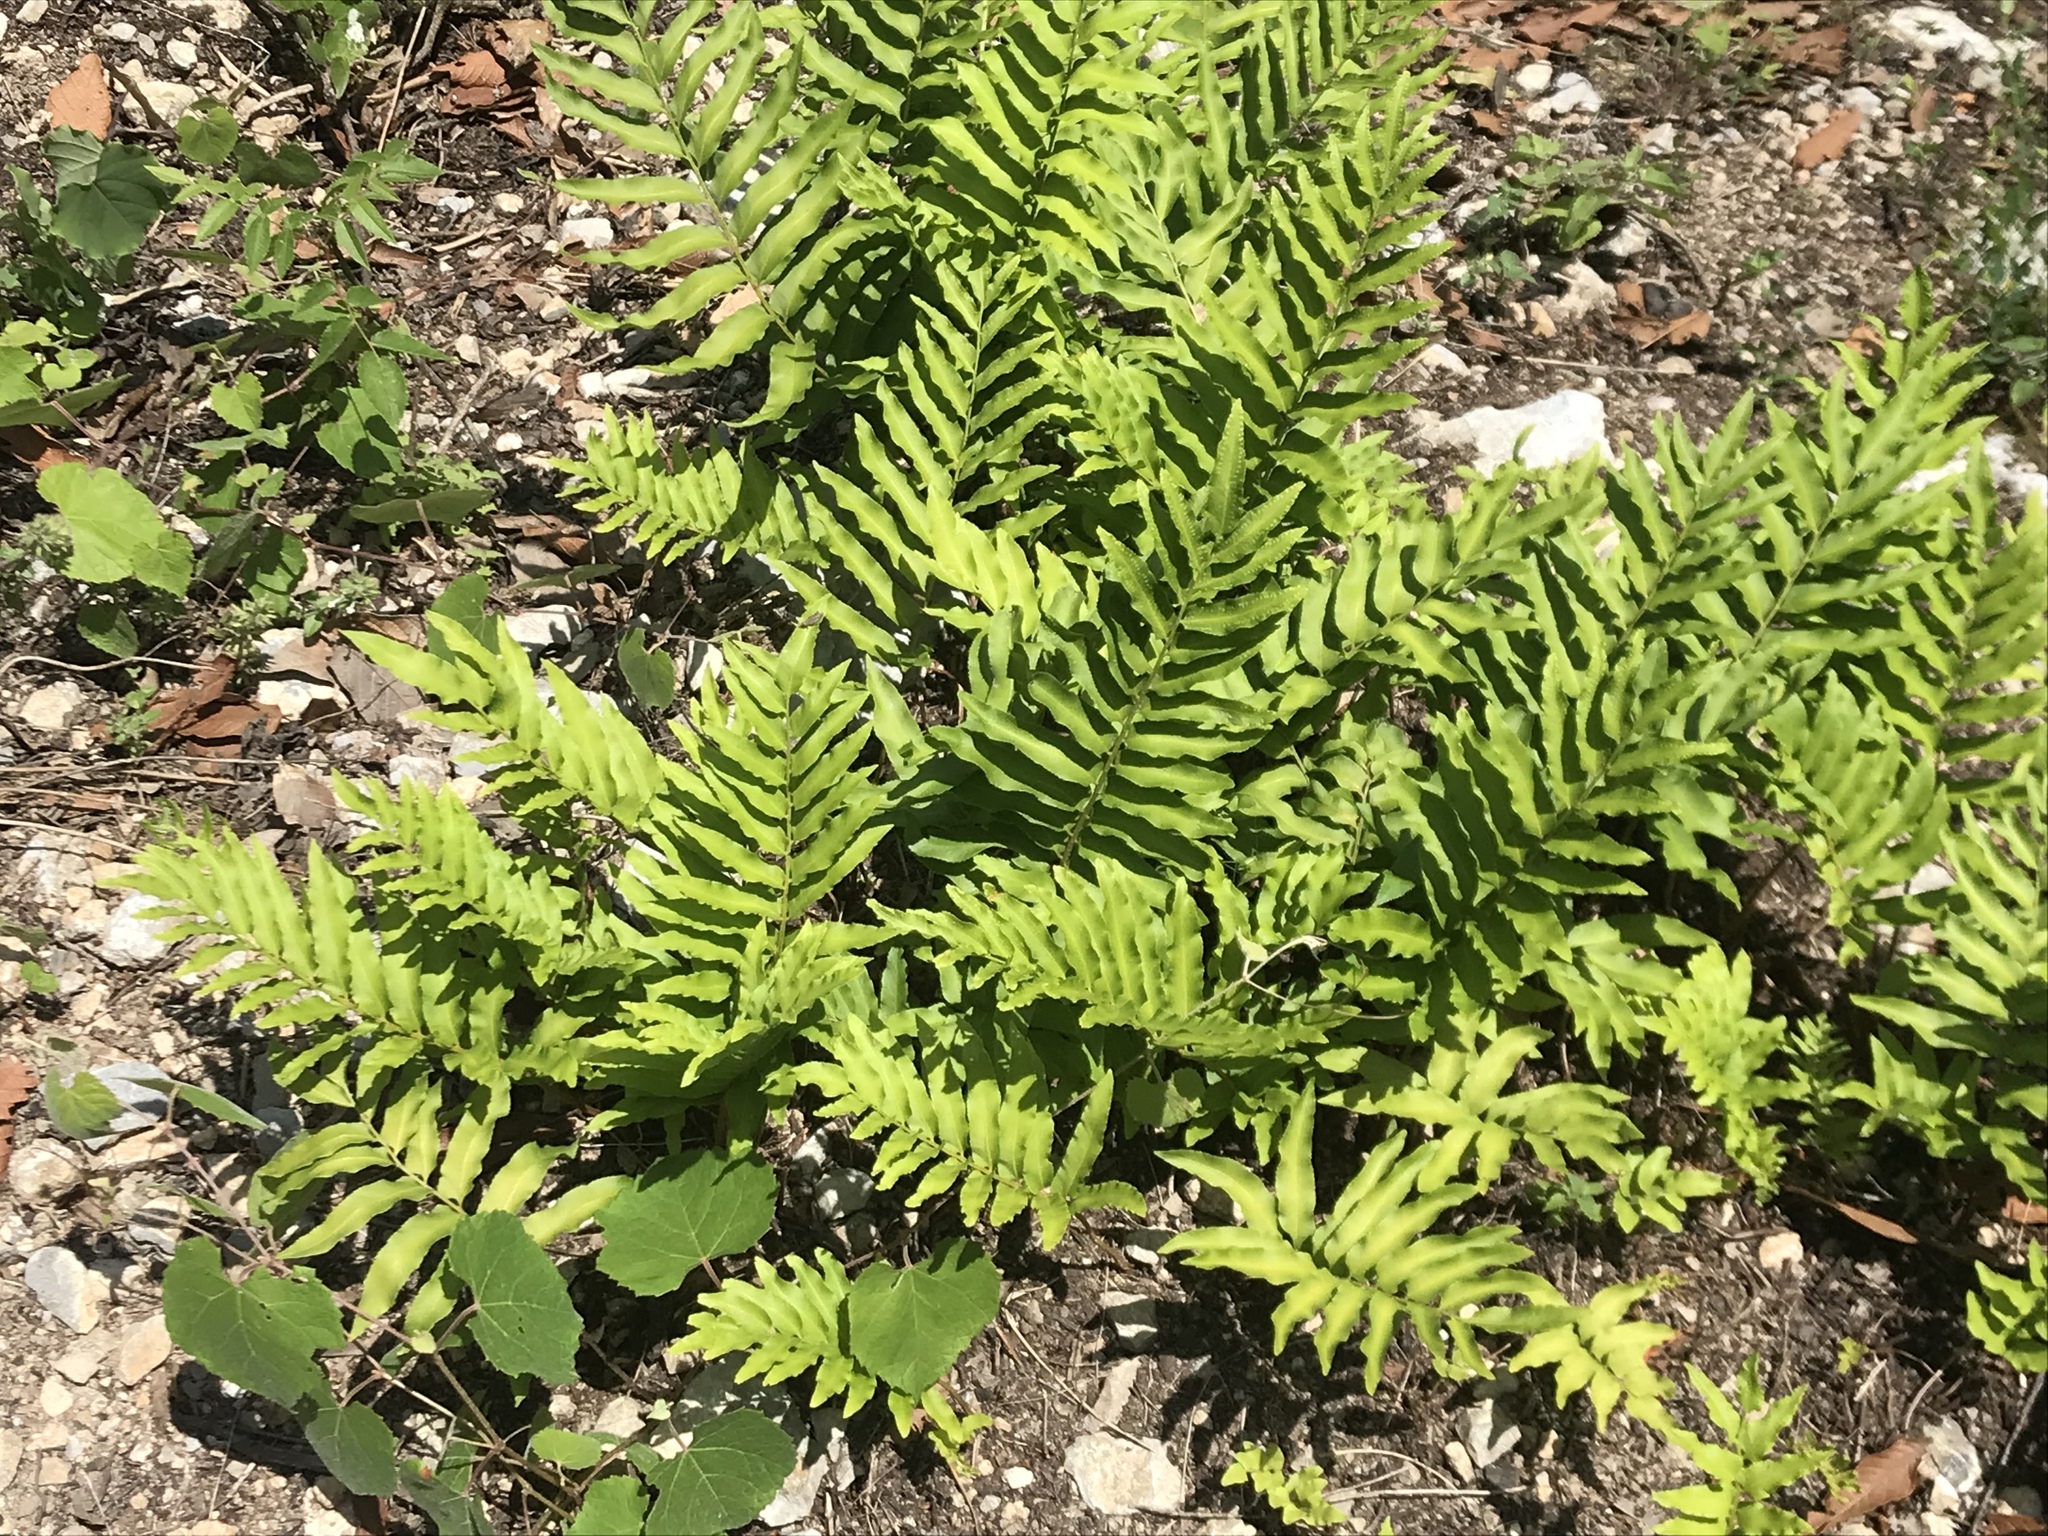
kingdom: Plantae
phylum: Tracheophyta
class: Polypodiopsida
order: Polypodiales
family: Dryopteridaceae
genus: Phanerophlebia
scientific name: Phanerophlebia umbonata
